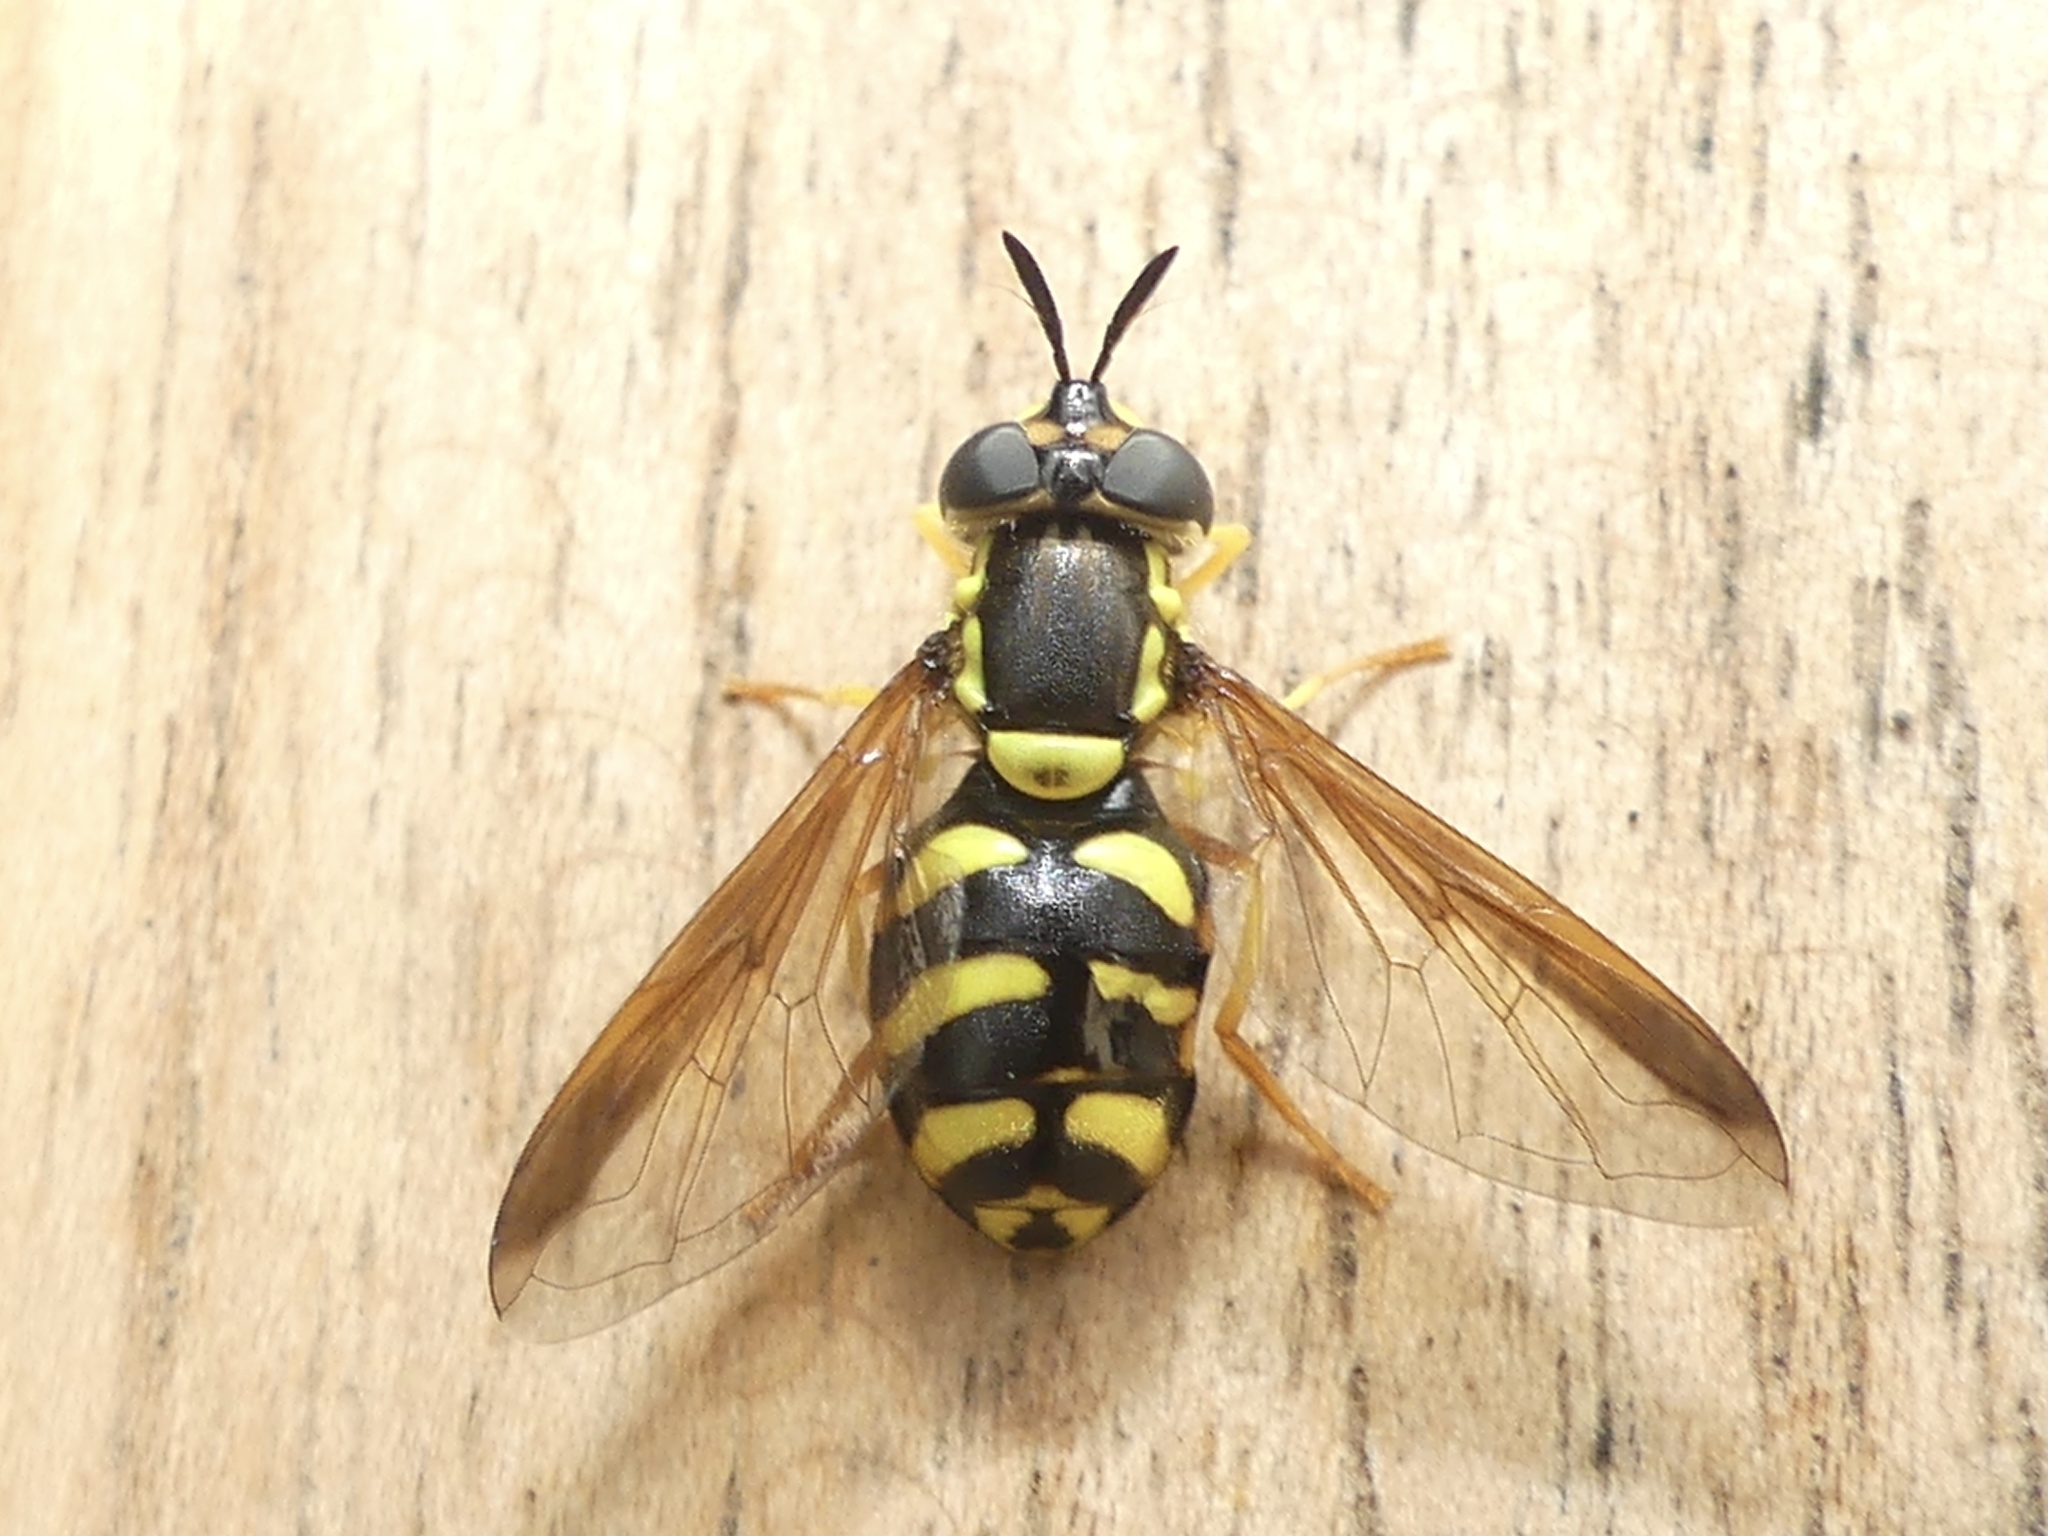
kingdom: Animalia
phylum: Arthropoda
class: Insecta
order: Diptera
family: Syrphidae
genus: Chrysotoxum
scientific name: Chrysotoxum intermedium
